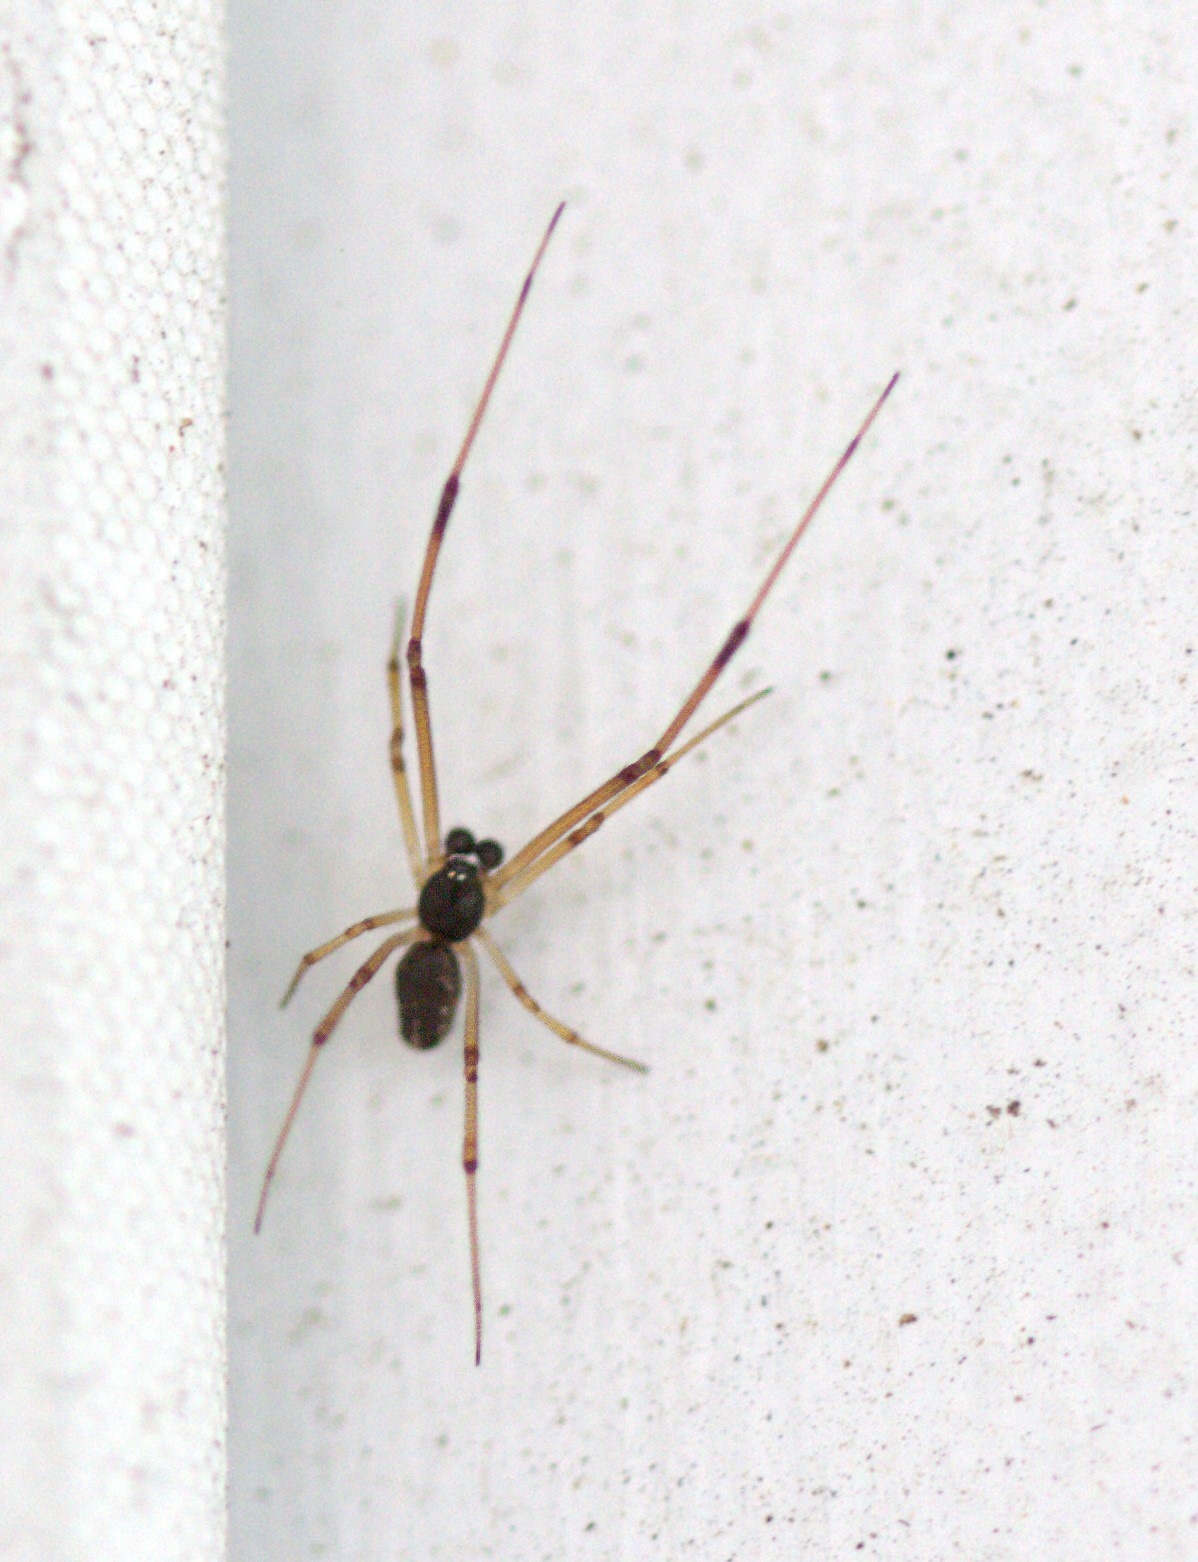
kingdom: Animalia
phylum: Arthropoda
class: Arachnida
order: Araneae
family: Theridiidae
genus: Latrodectus
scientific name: Latrodectus geometricus
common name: Brown widow spider
